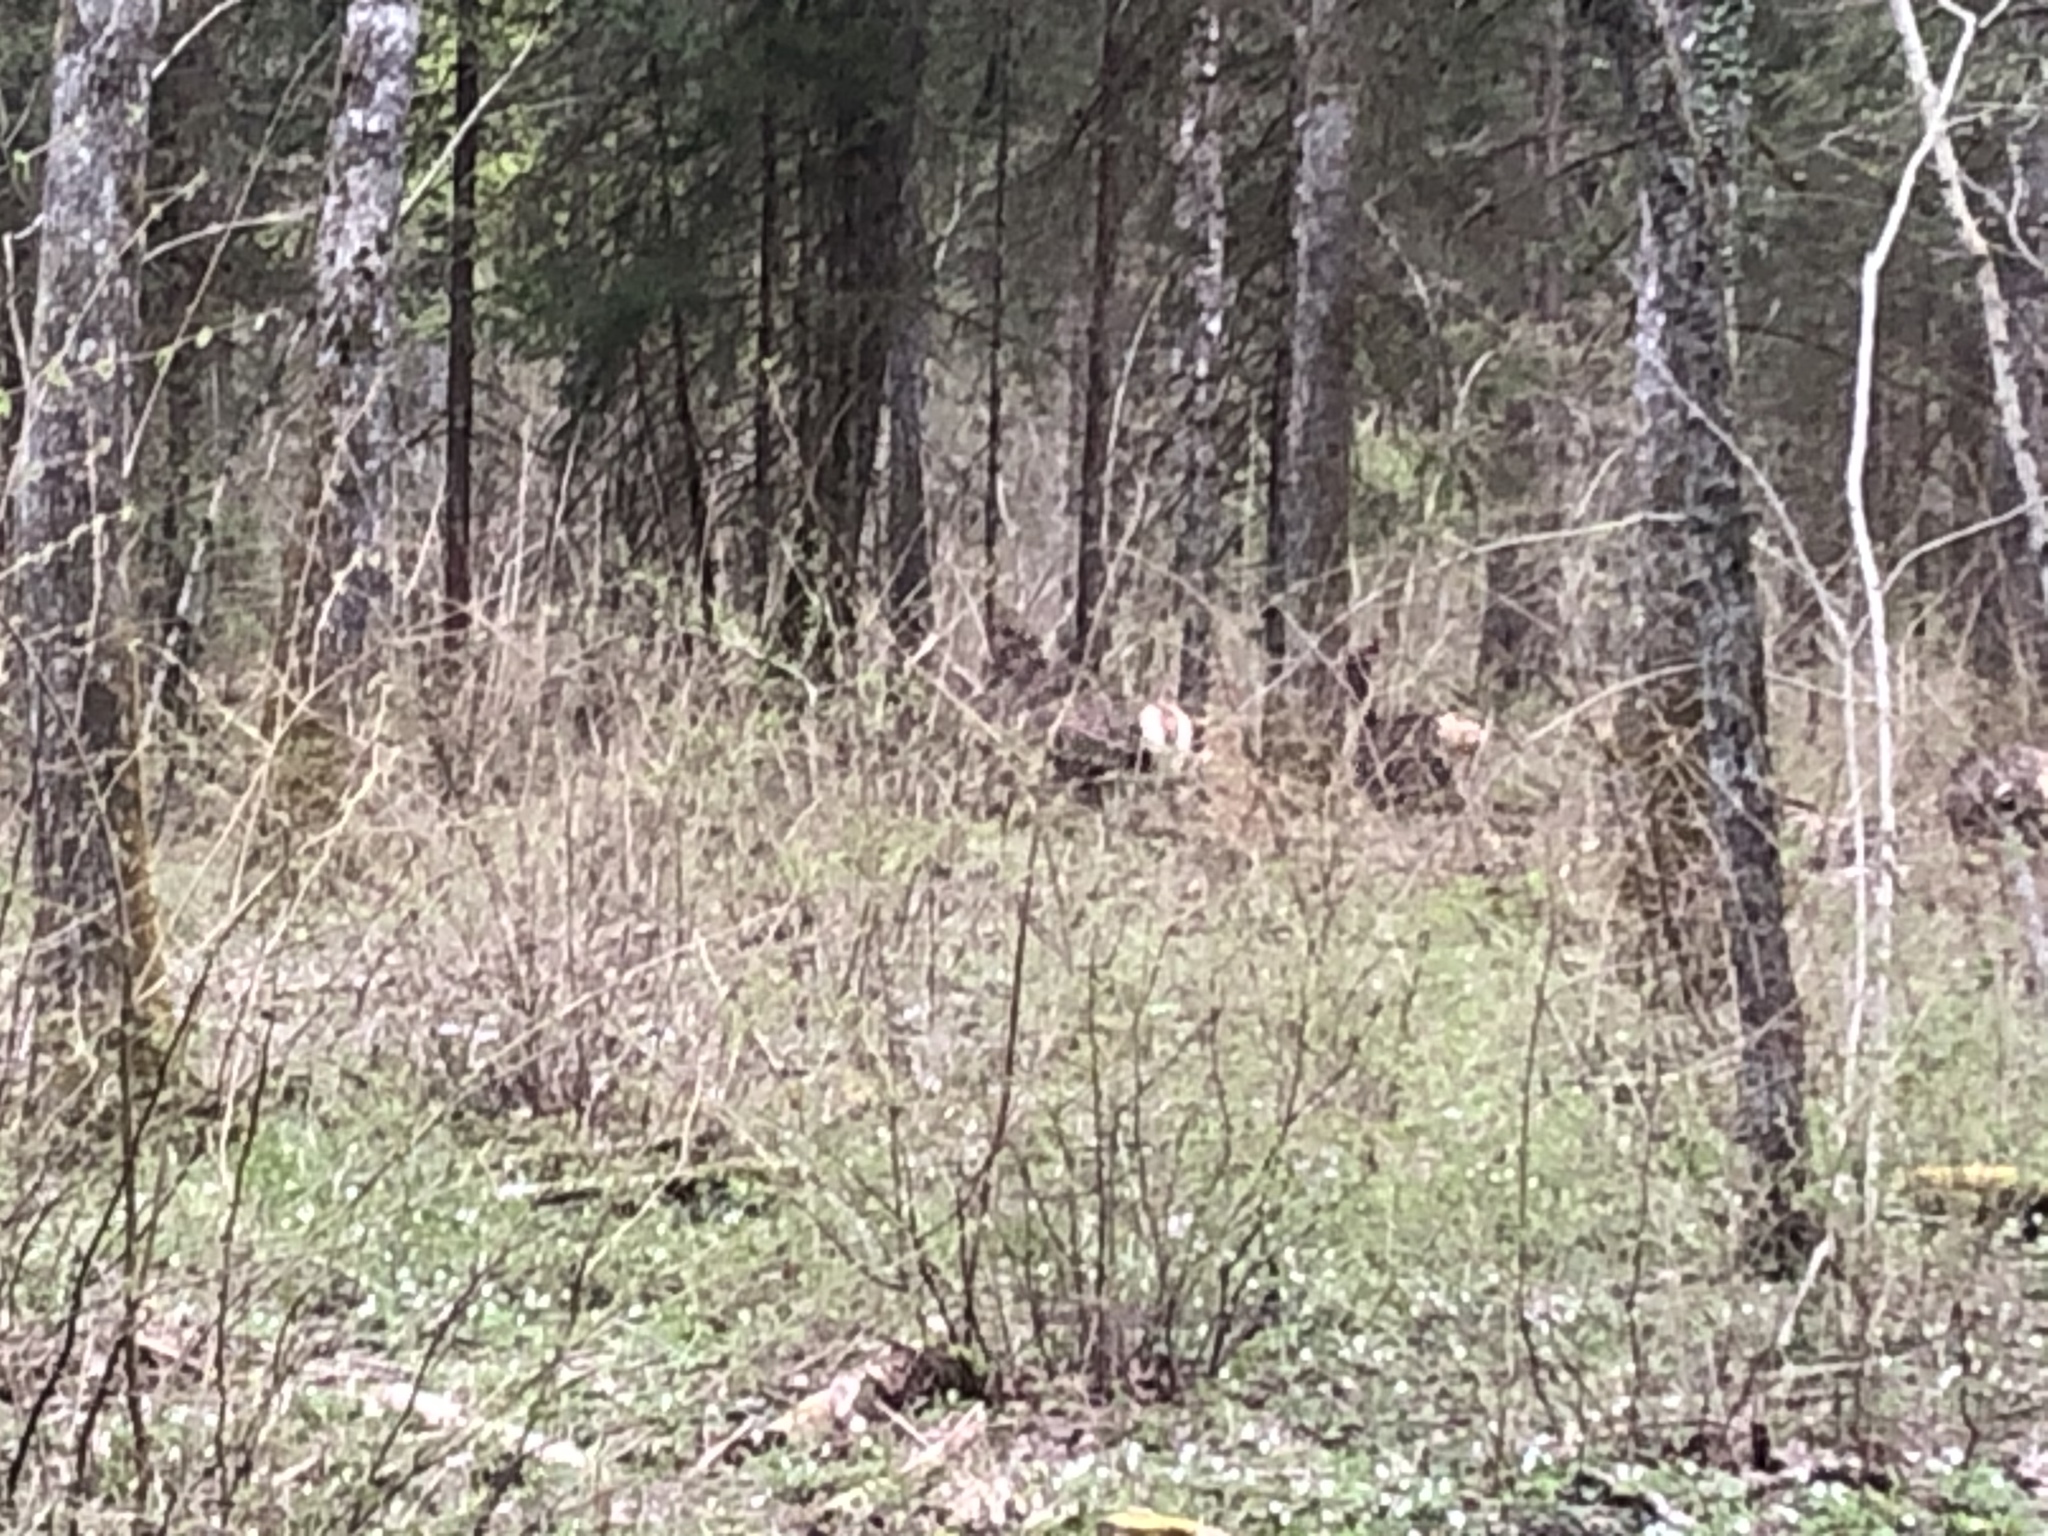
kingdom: Animalia
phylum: Chordata
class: Mammalia
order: Artiodactyla
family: Cervidae
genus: Cervus
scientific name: Cervus elaphus
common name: Red deer
